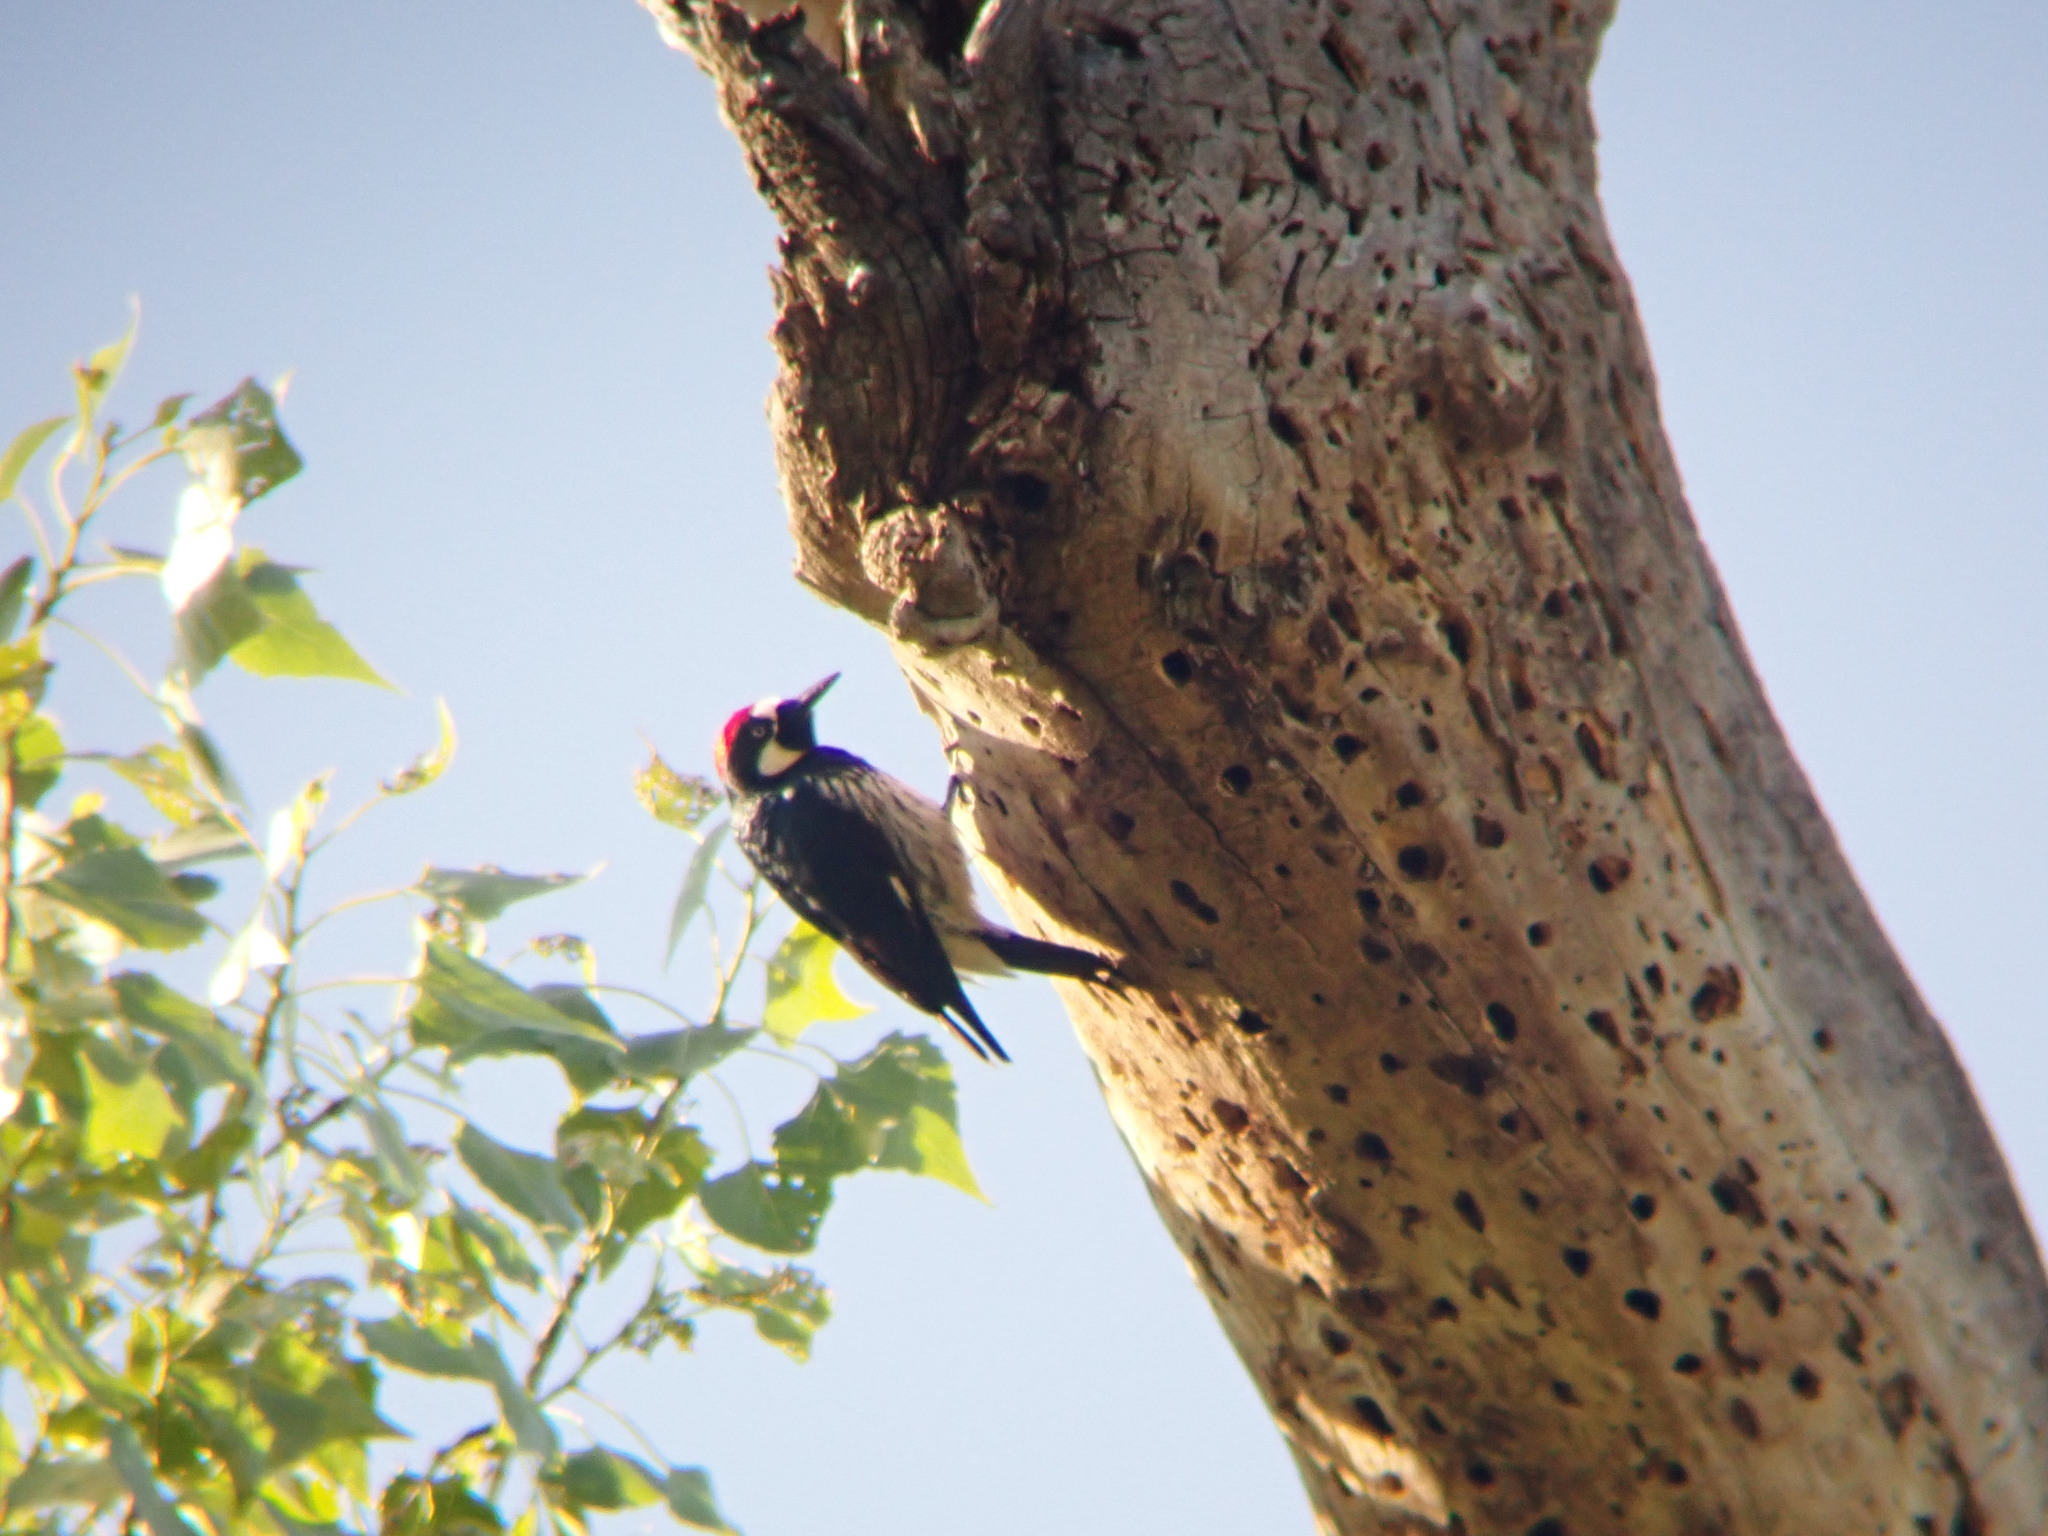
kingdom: Animalia
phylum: Chordata
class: Aves
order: Piciformes
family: Picidae
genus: Melanerpes
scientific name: Melanerpes formicivorus
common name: Acorn woodpecker
